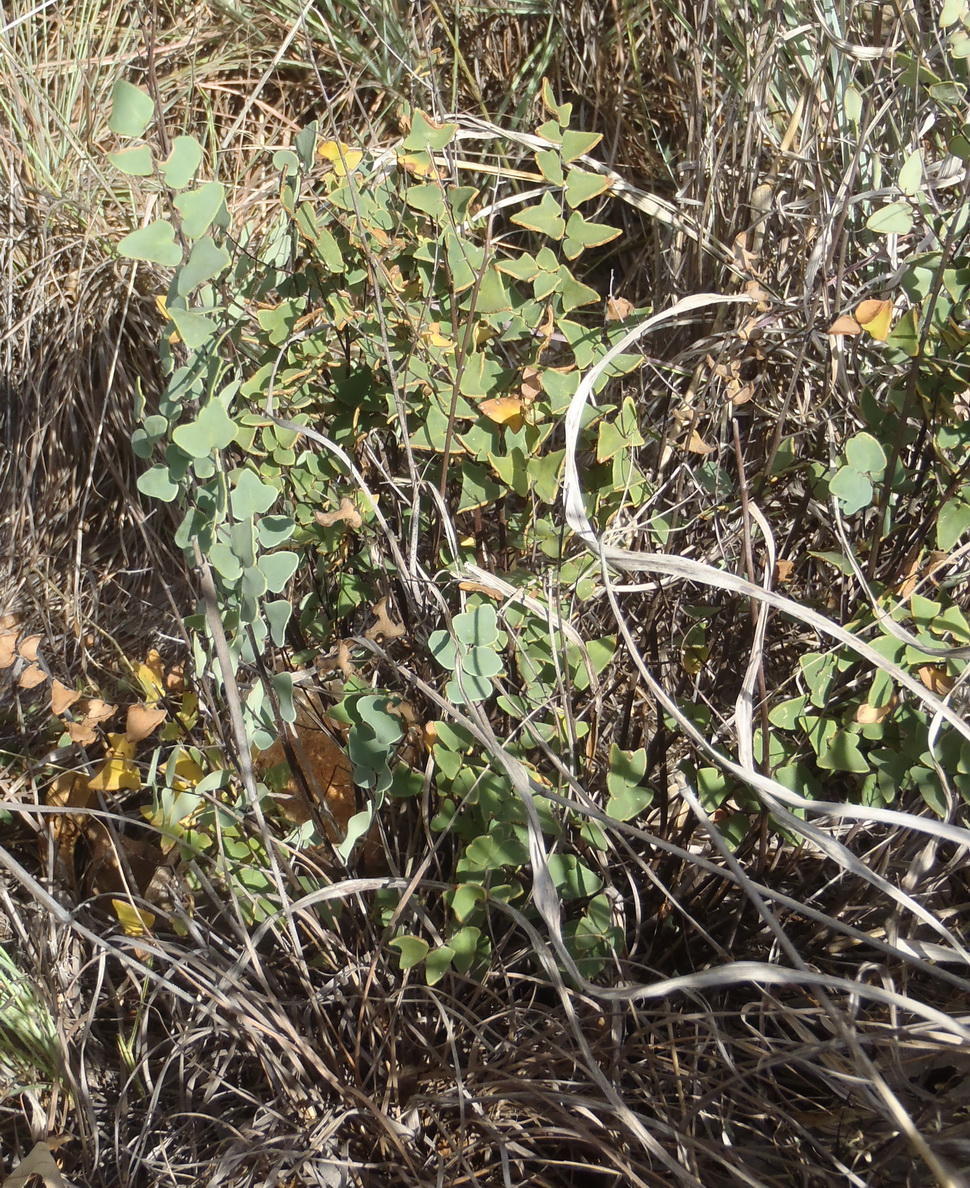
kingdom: Plantae
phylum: Tracheophyta
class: Polypodiopsida
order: Polypodiales
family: Pteridaceae
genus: Pellaea
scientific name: Pellaea calomelanos
